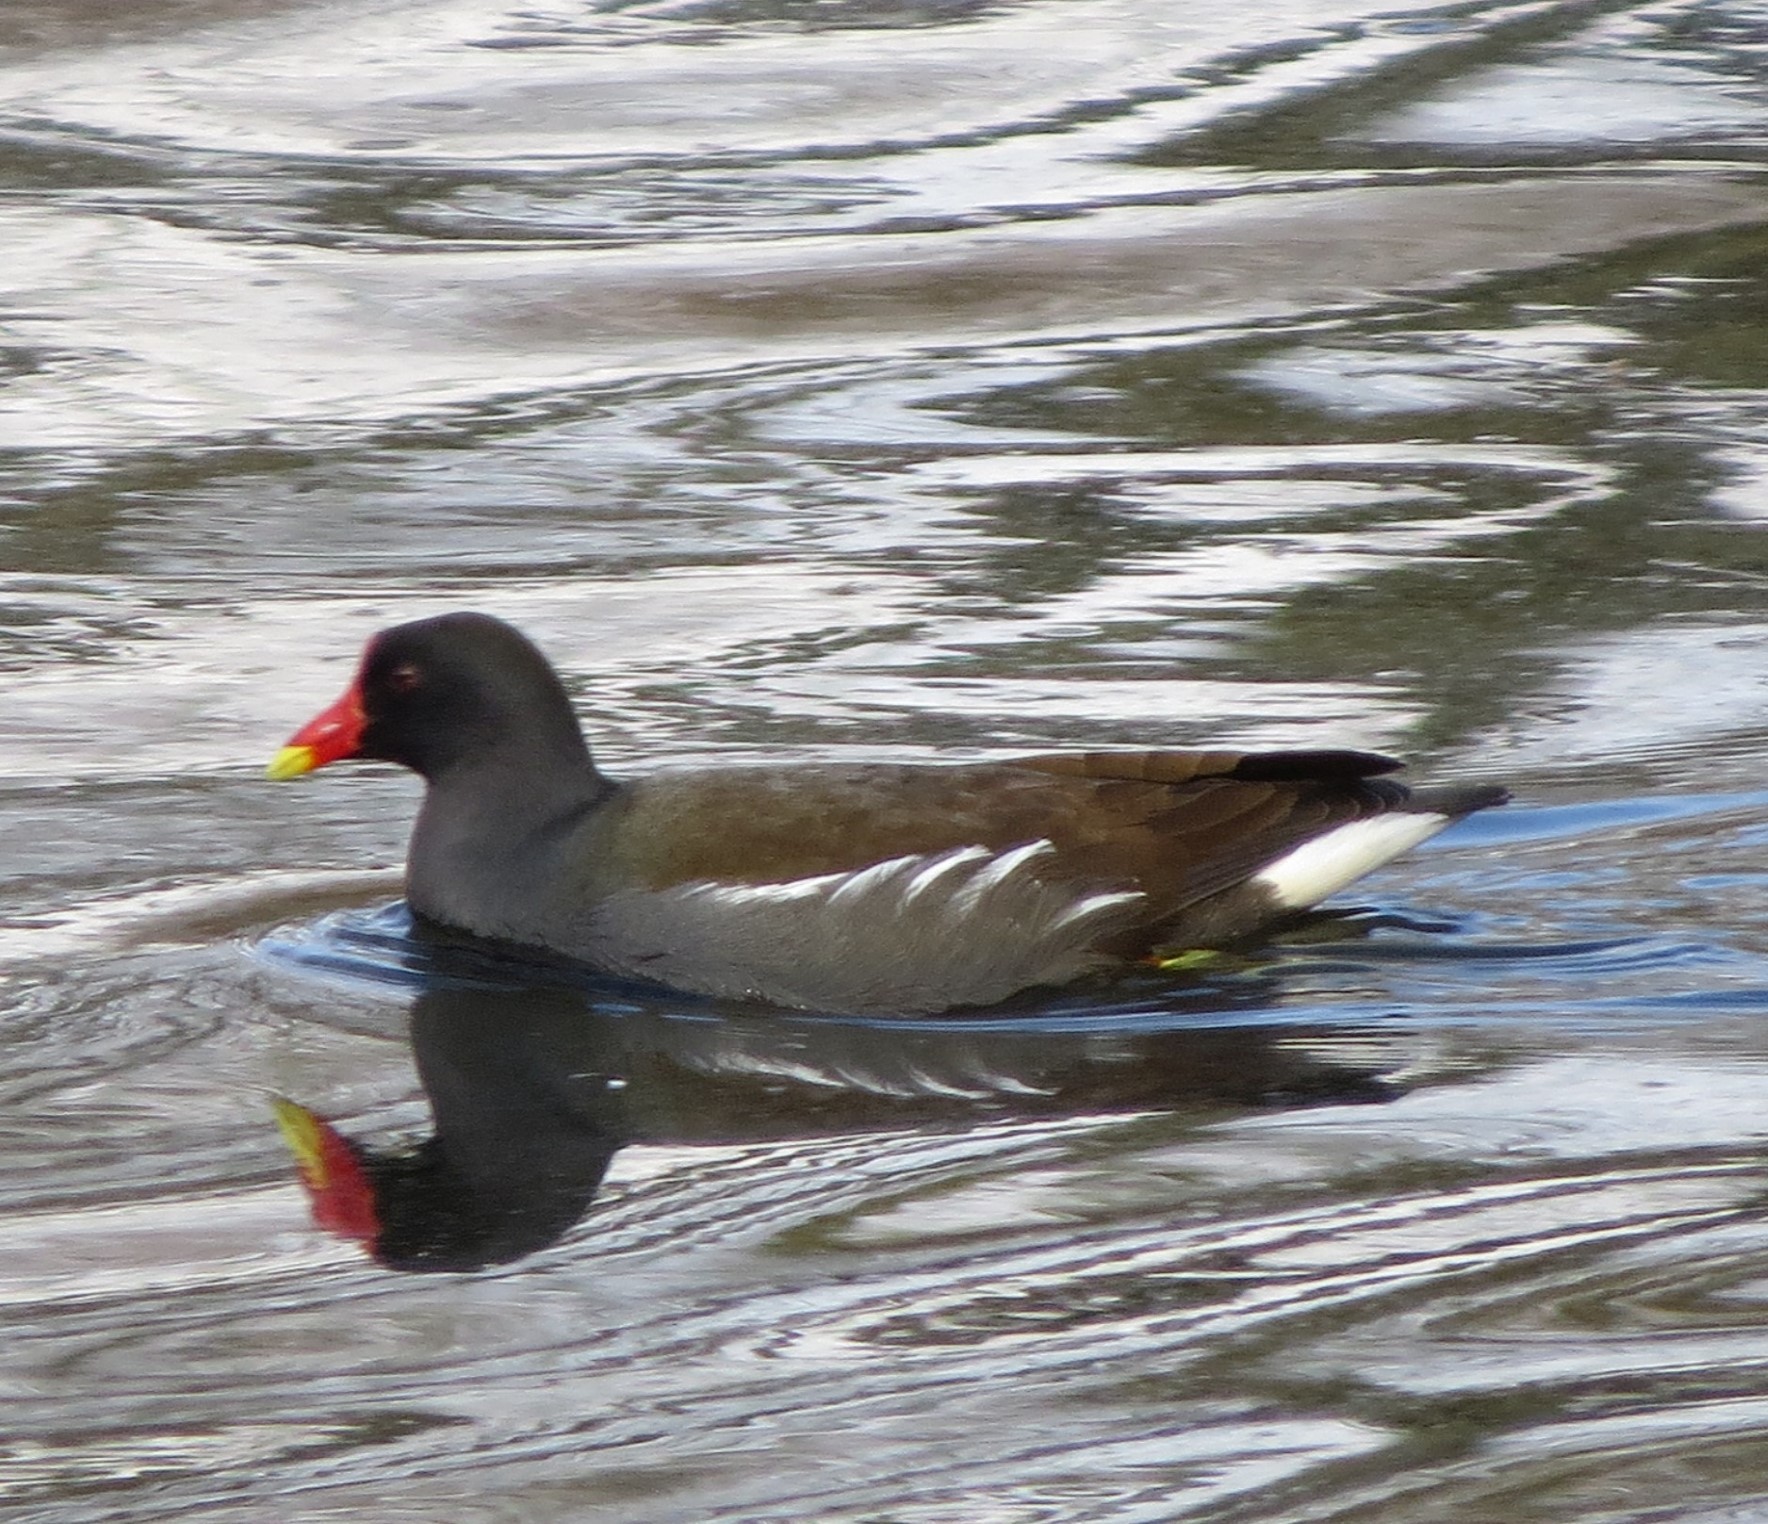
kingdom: Animalia
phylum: Chordata
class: Aves
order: Gruiformes
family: Rallidae
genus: Gallinula
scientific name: Gallinula chloropus
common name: Common moorhen
